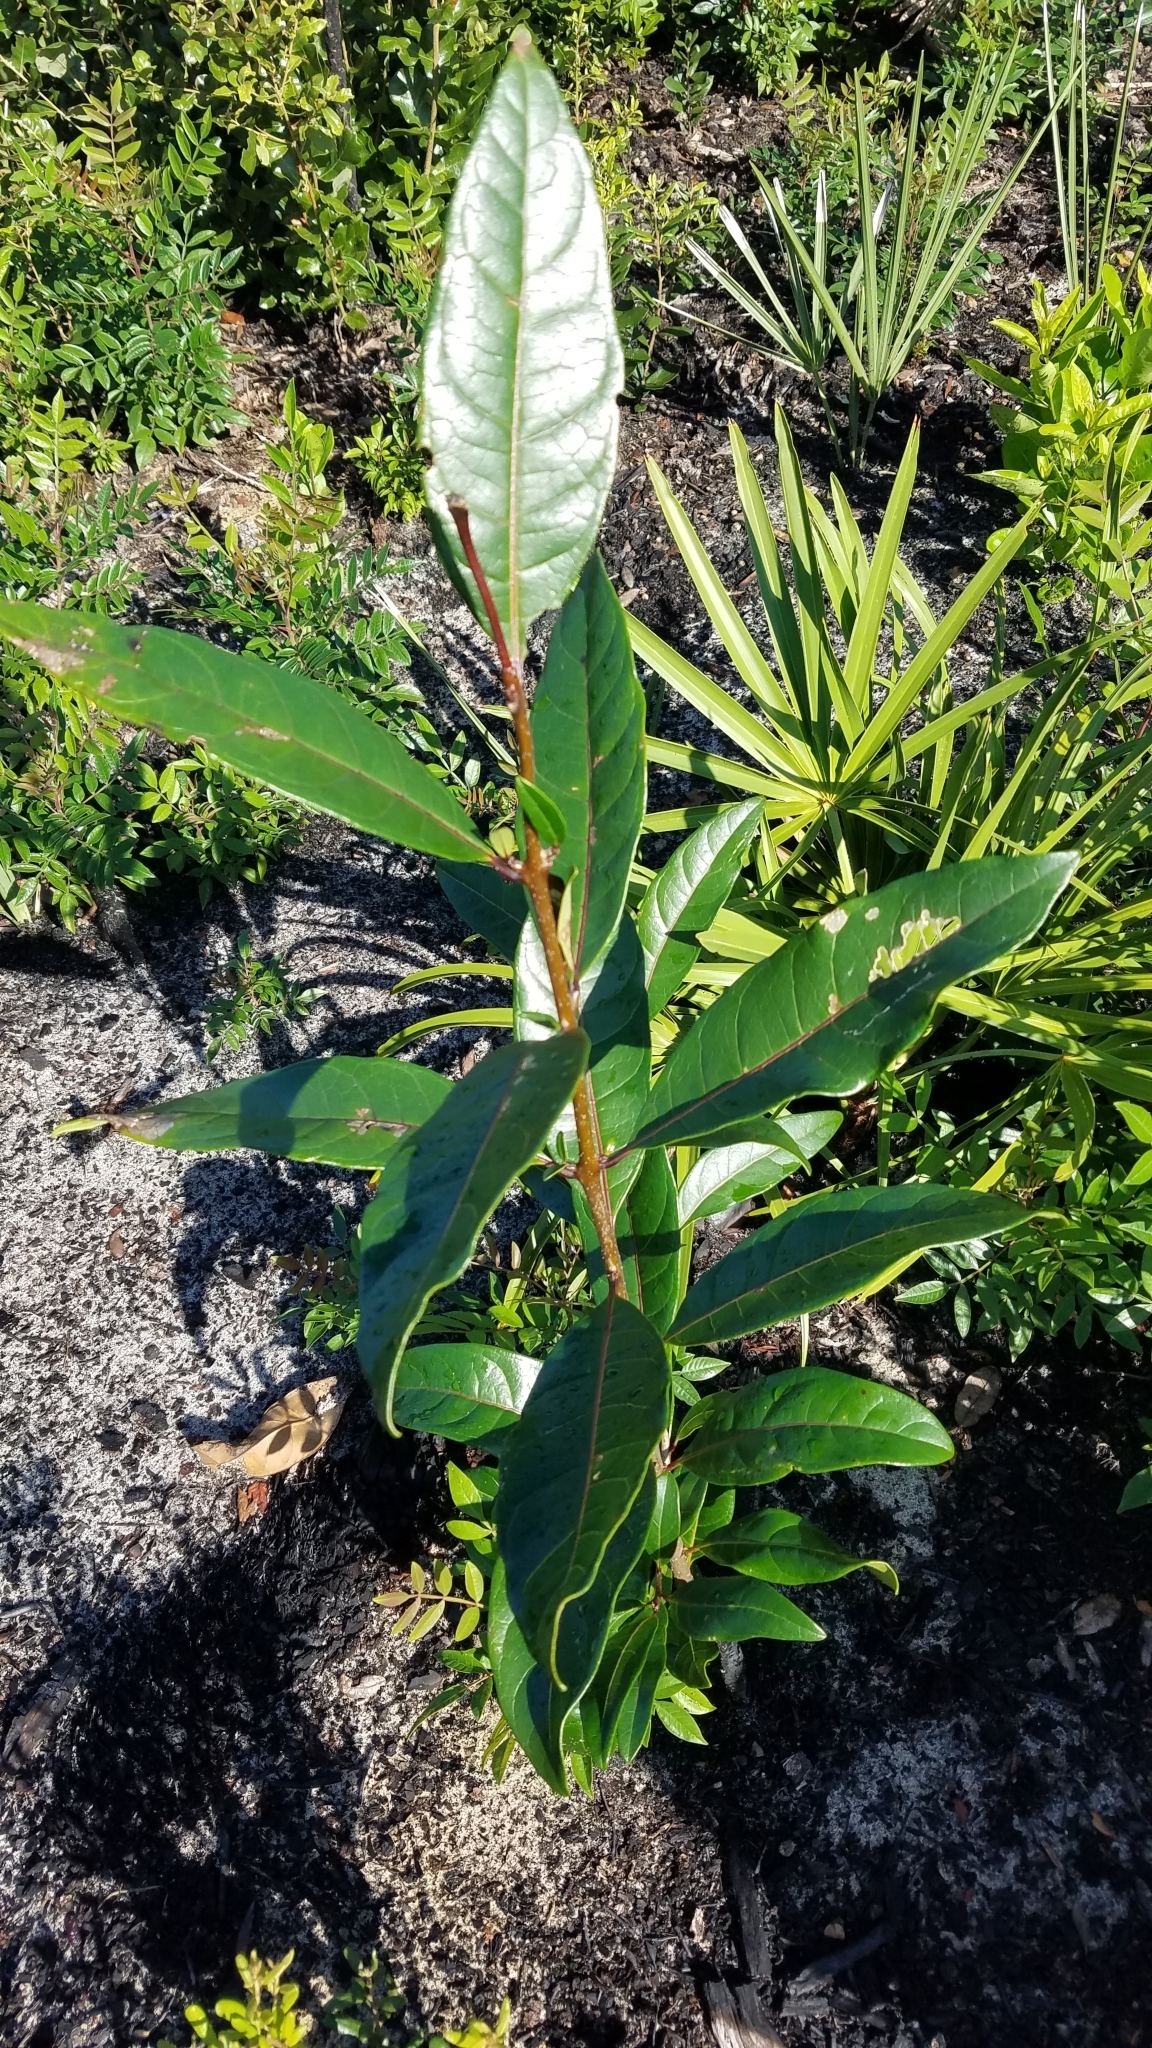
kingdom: Plantae
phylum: Tracheophyta
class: Magnoliopsida
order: Lamiales
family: Oleaceae
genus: Chionanthus
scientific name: Chionanthus pygmaeus
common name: Pygmy fringetree
